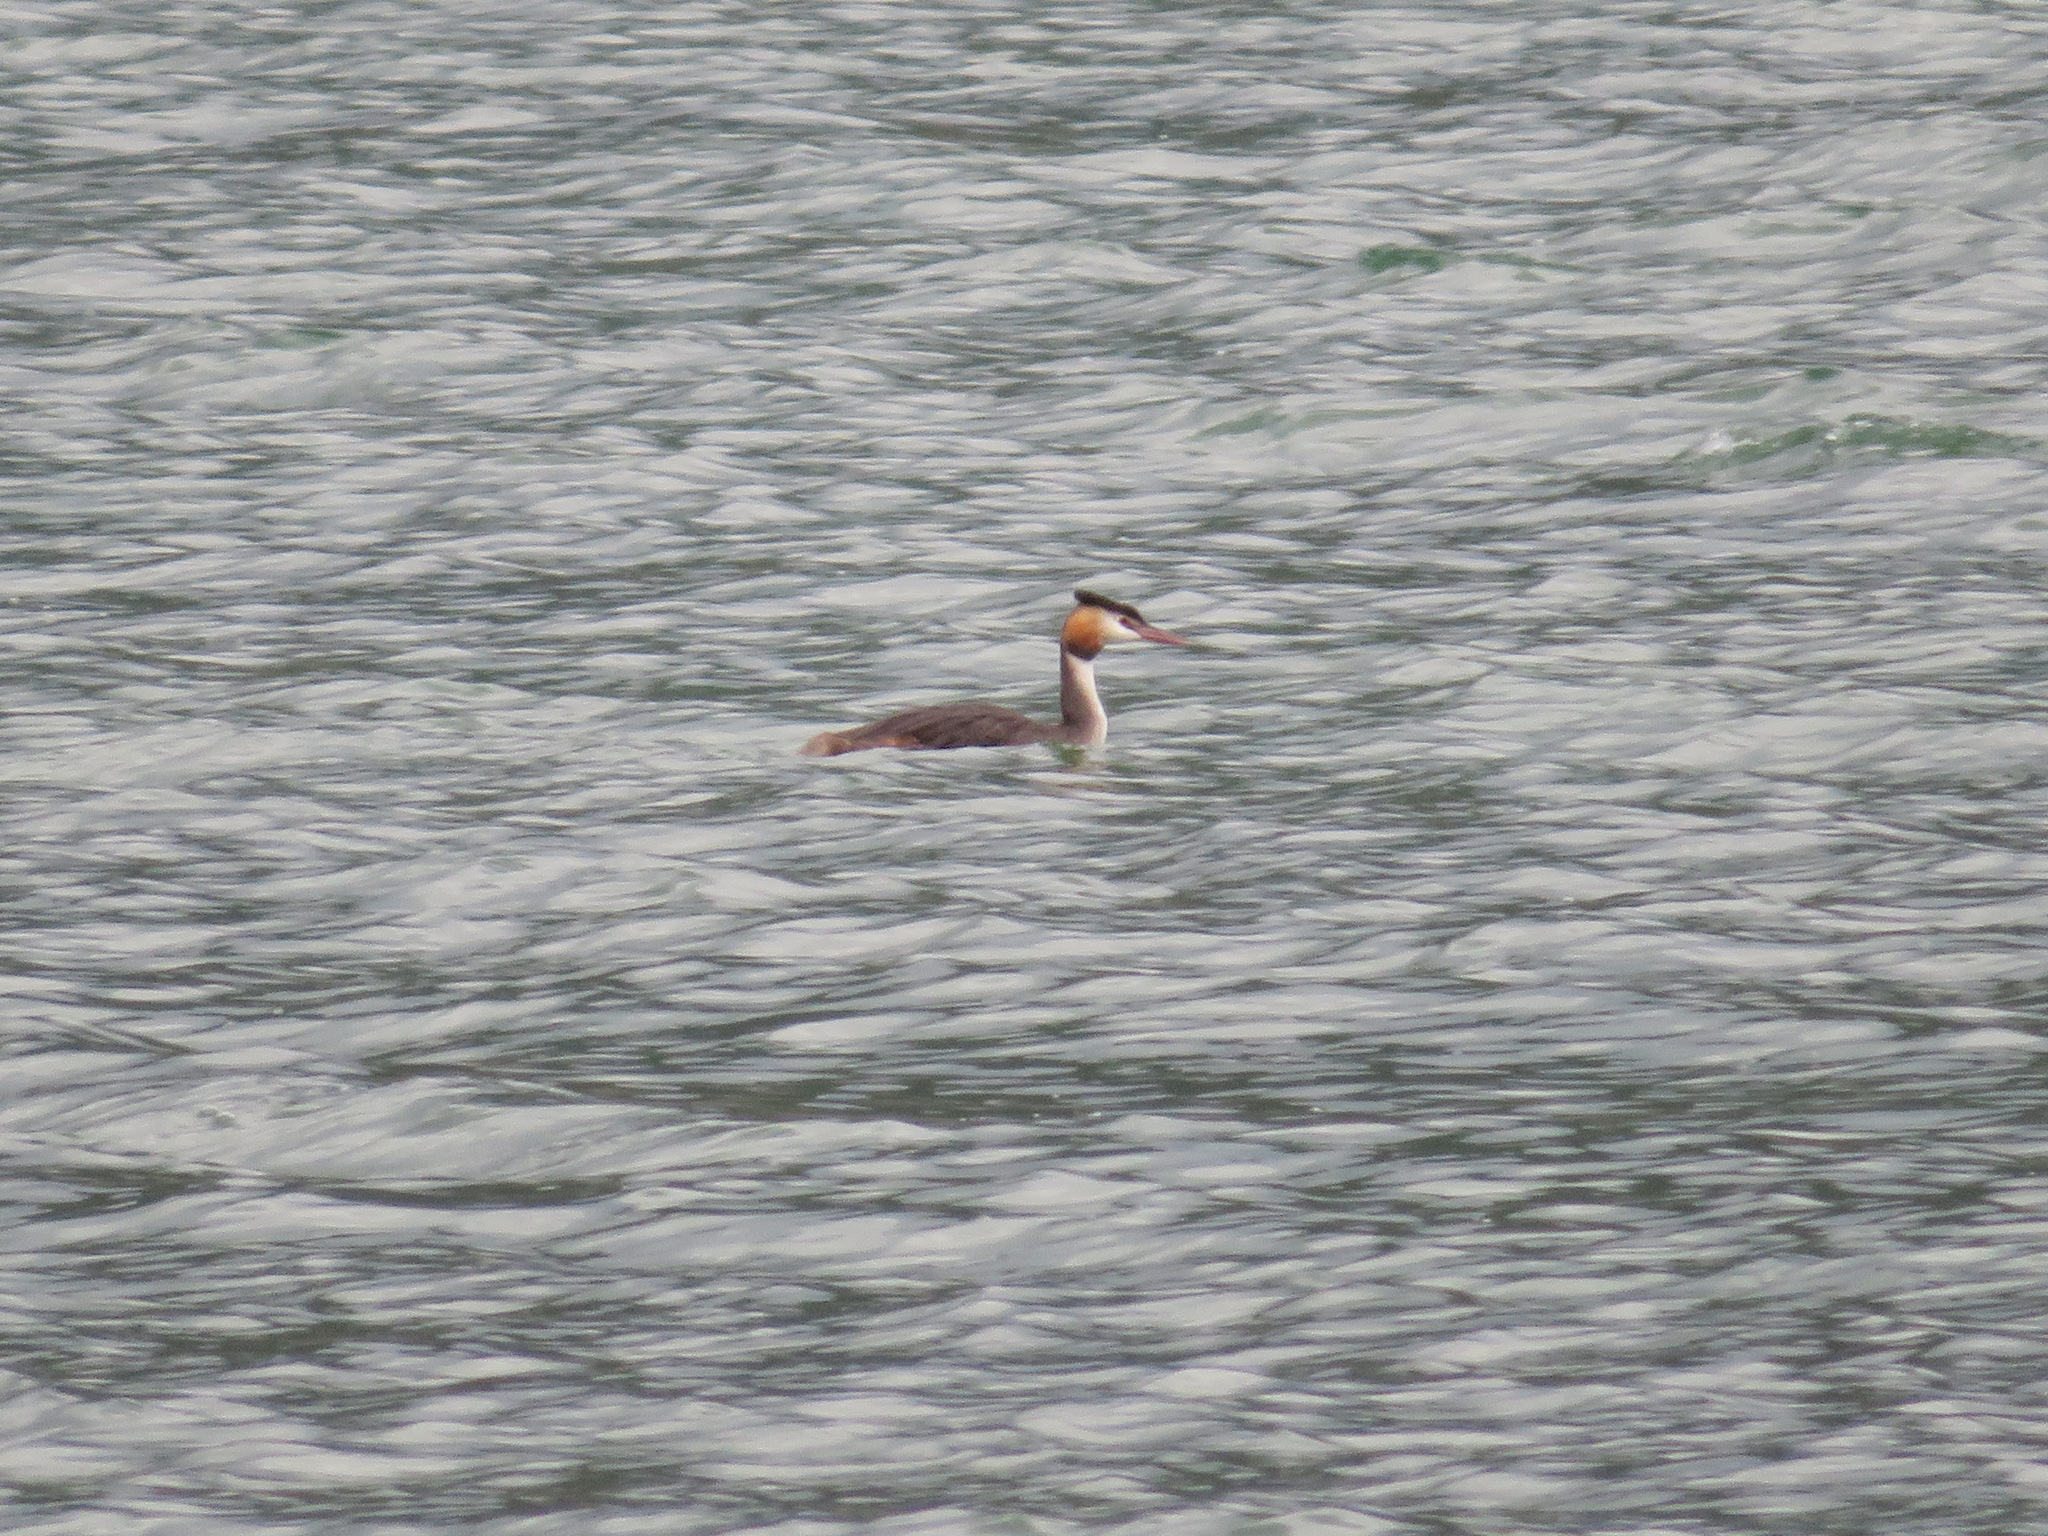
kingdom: Animalia
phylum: Chordata
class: Aves
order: Podicipediformes
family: Podicipedidae
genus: Podiceps
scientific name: Podiceps cristatus
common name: Great crested grebe
